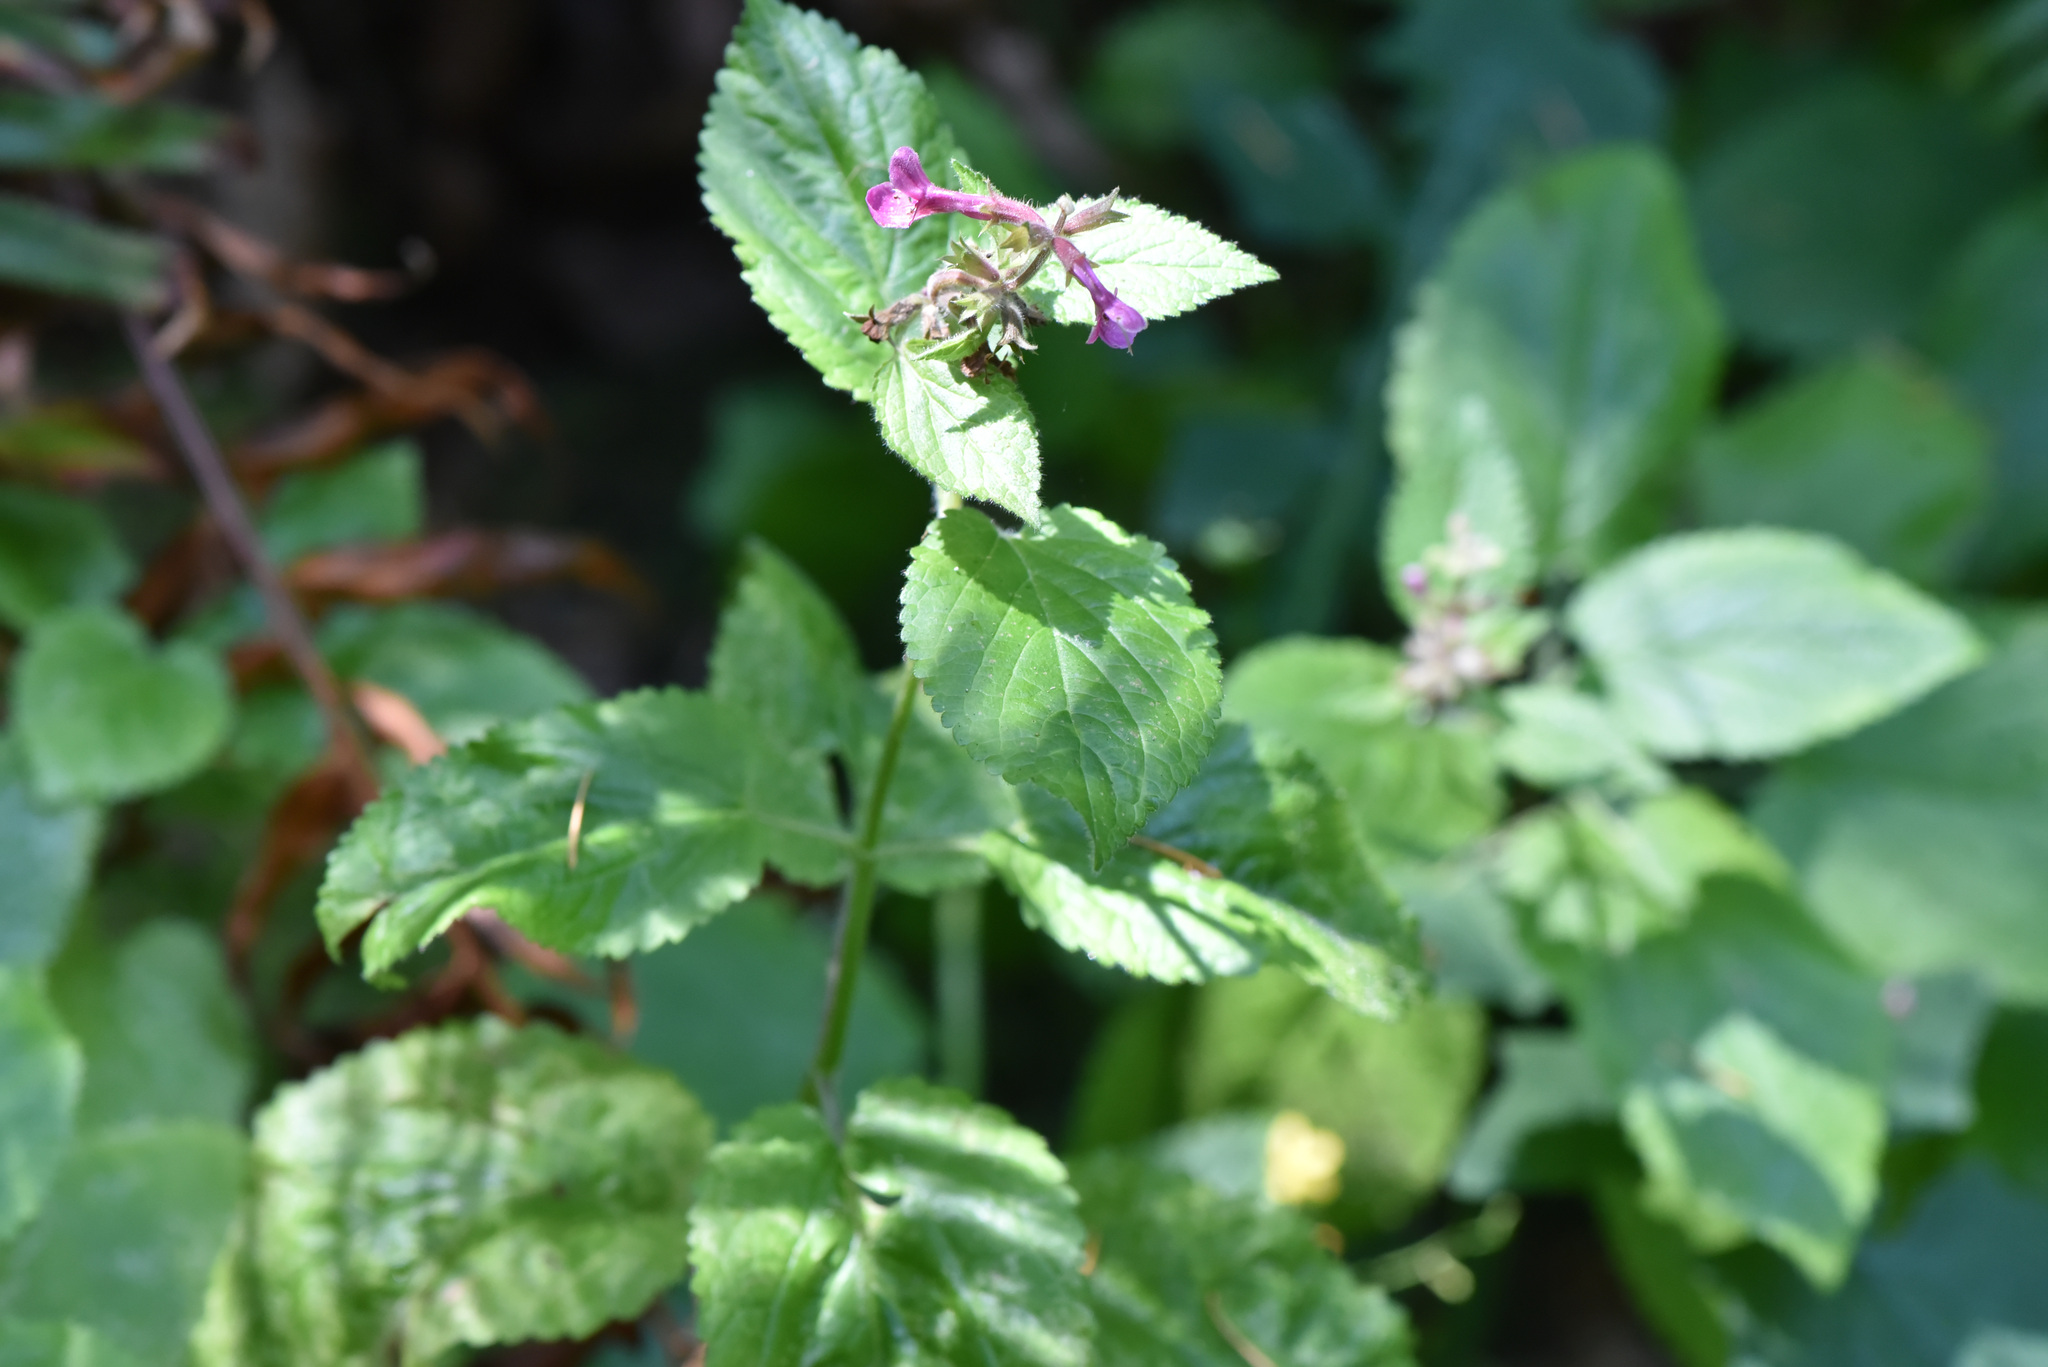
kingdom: Plantae
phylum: Tracheophyta
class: Magnoliopsida
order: Lamiales
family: Lamiaceae
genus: Stachys
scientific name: Stachys chamissonis
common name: Coastal hedge-nettle
